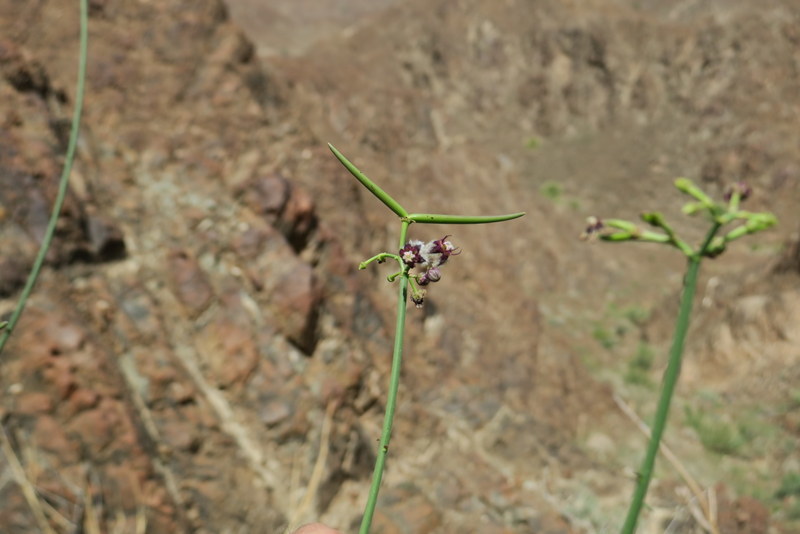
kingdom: Plantae
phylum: Tracheophyta
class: Magnoliopsida
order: Gentianales
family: Apocynaceae
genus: Periploca
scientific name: Periploca aphylla
